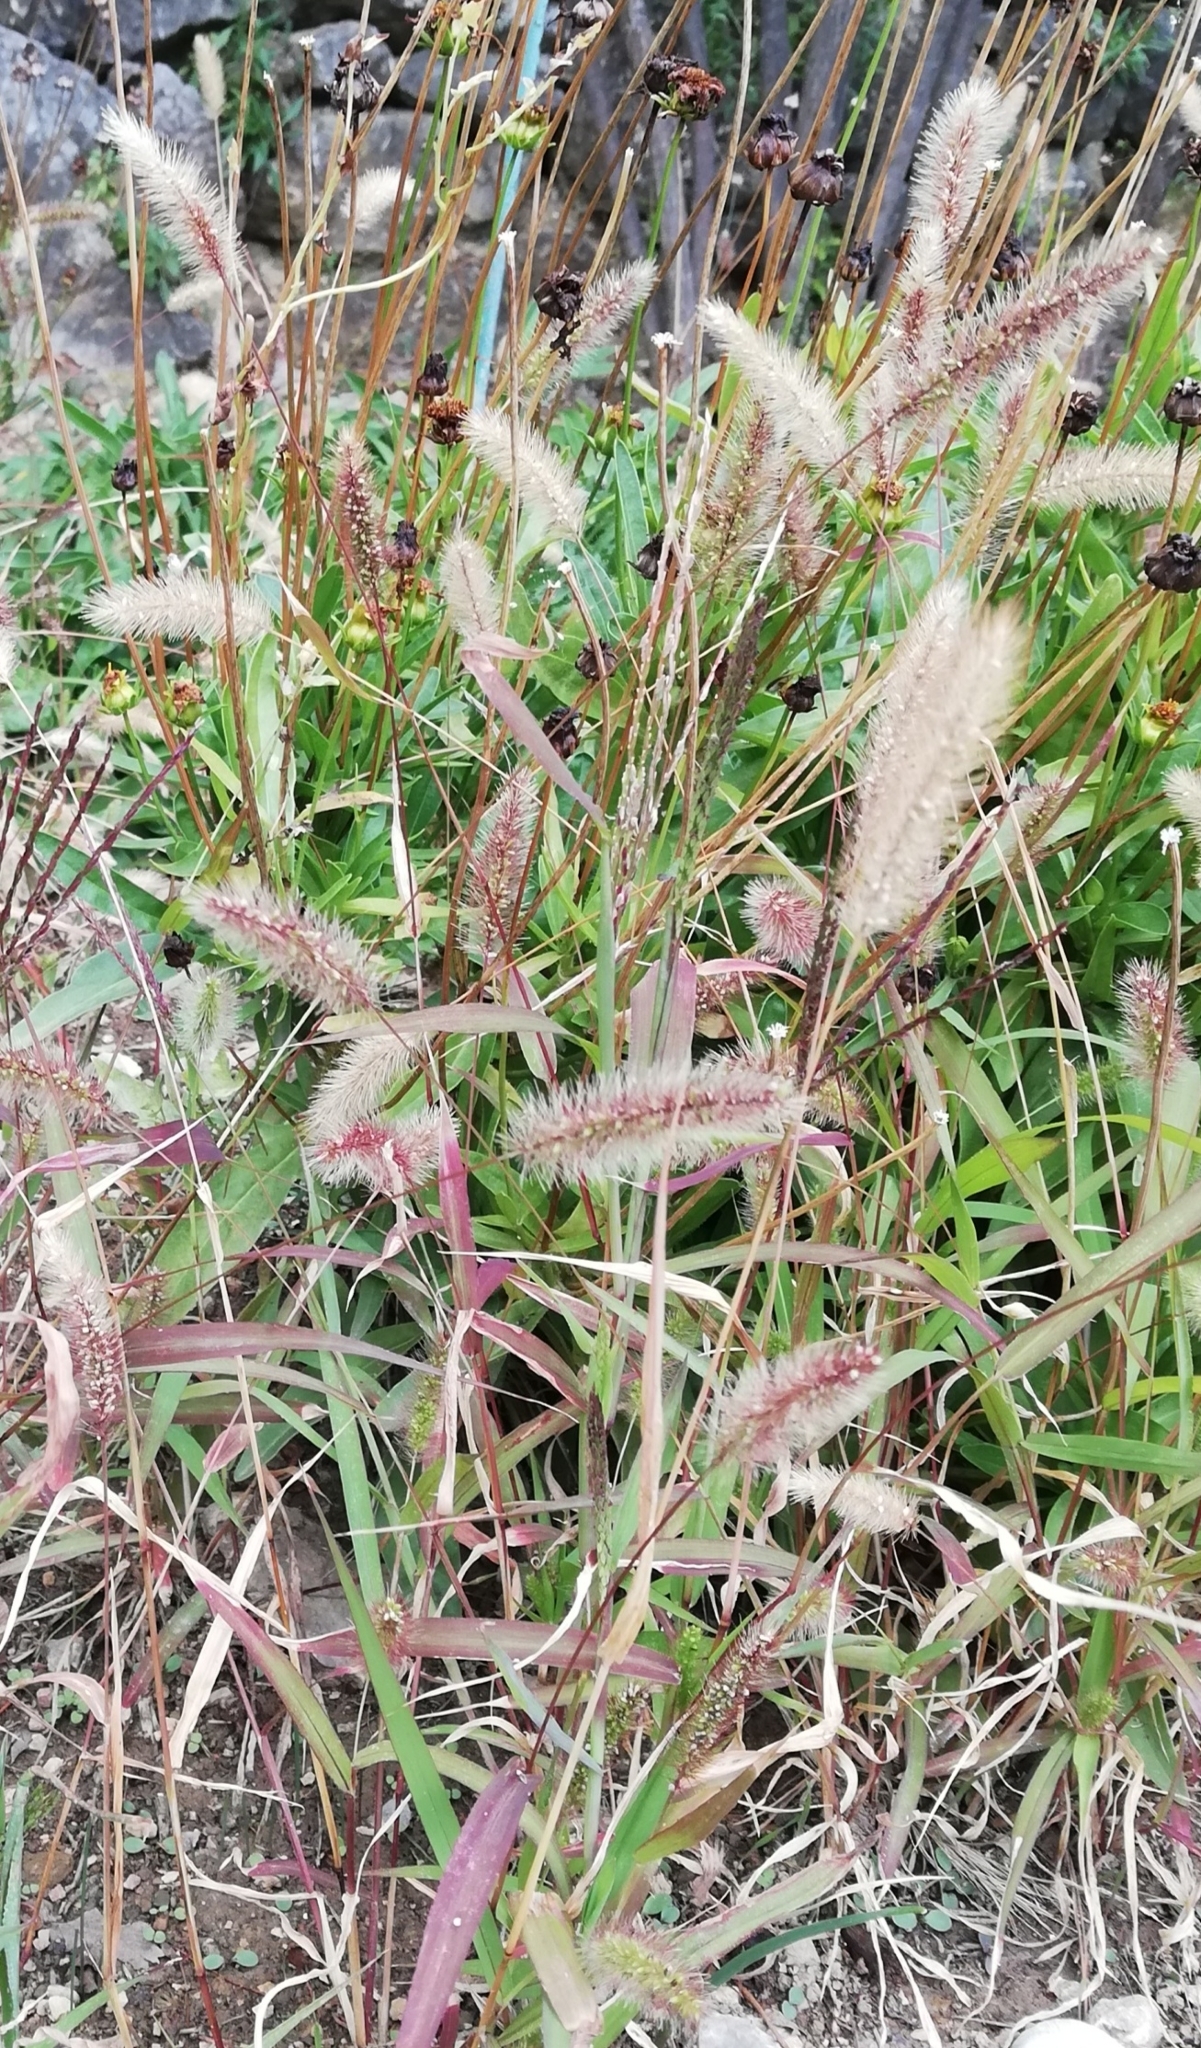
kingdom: Plantae
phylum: Tracheophyta
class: Liliopsida
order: Poales
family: Poaceae
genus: Setaria
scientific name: Setaria viridis
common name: Green bristlegrass
